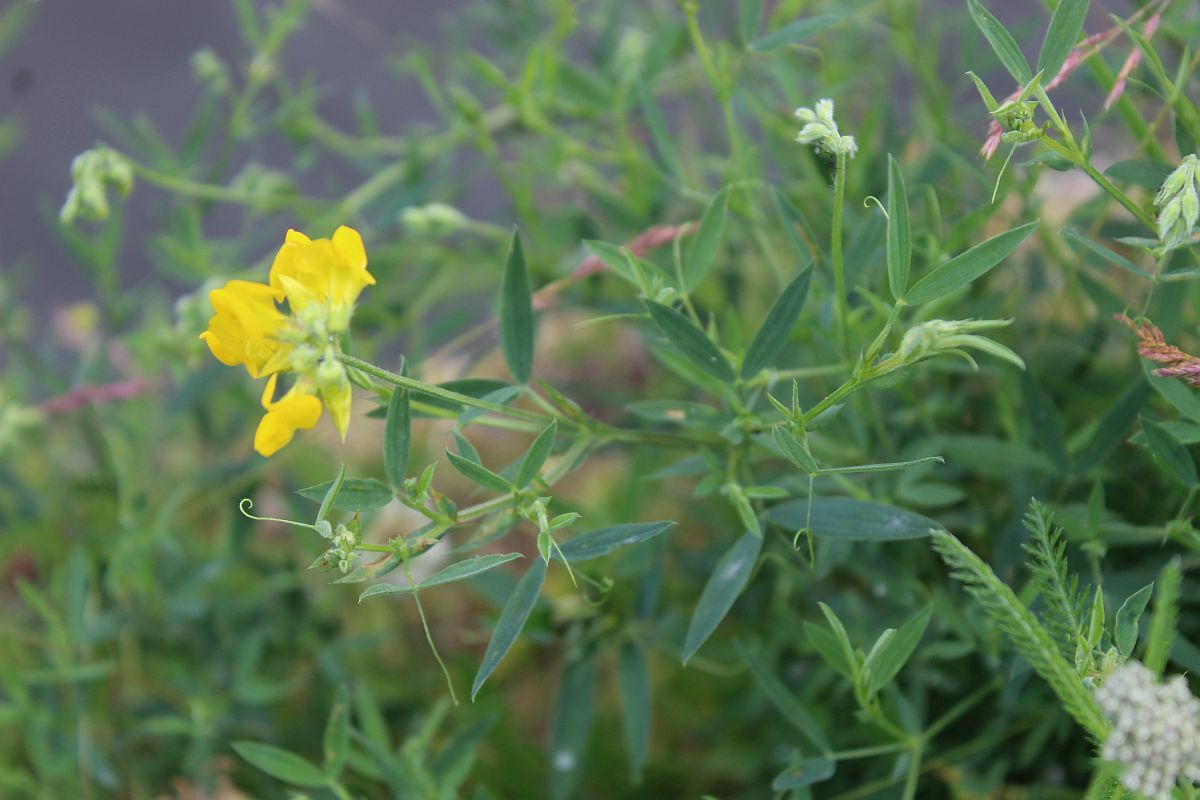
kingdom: Plantae
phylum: Tracheophyta
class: Magnoliopsida
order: Fabales
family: Fabaceae
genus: Lathyrus
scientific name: Lathyrus pratensis
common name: Meadow vetchling
